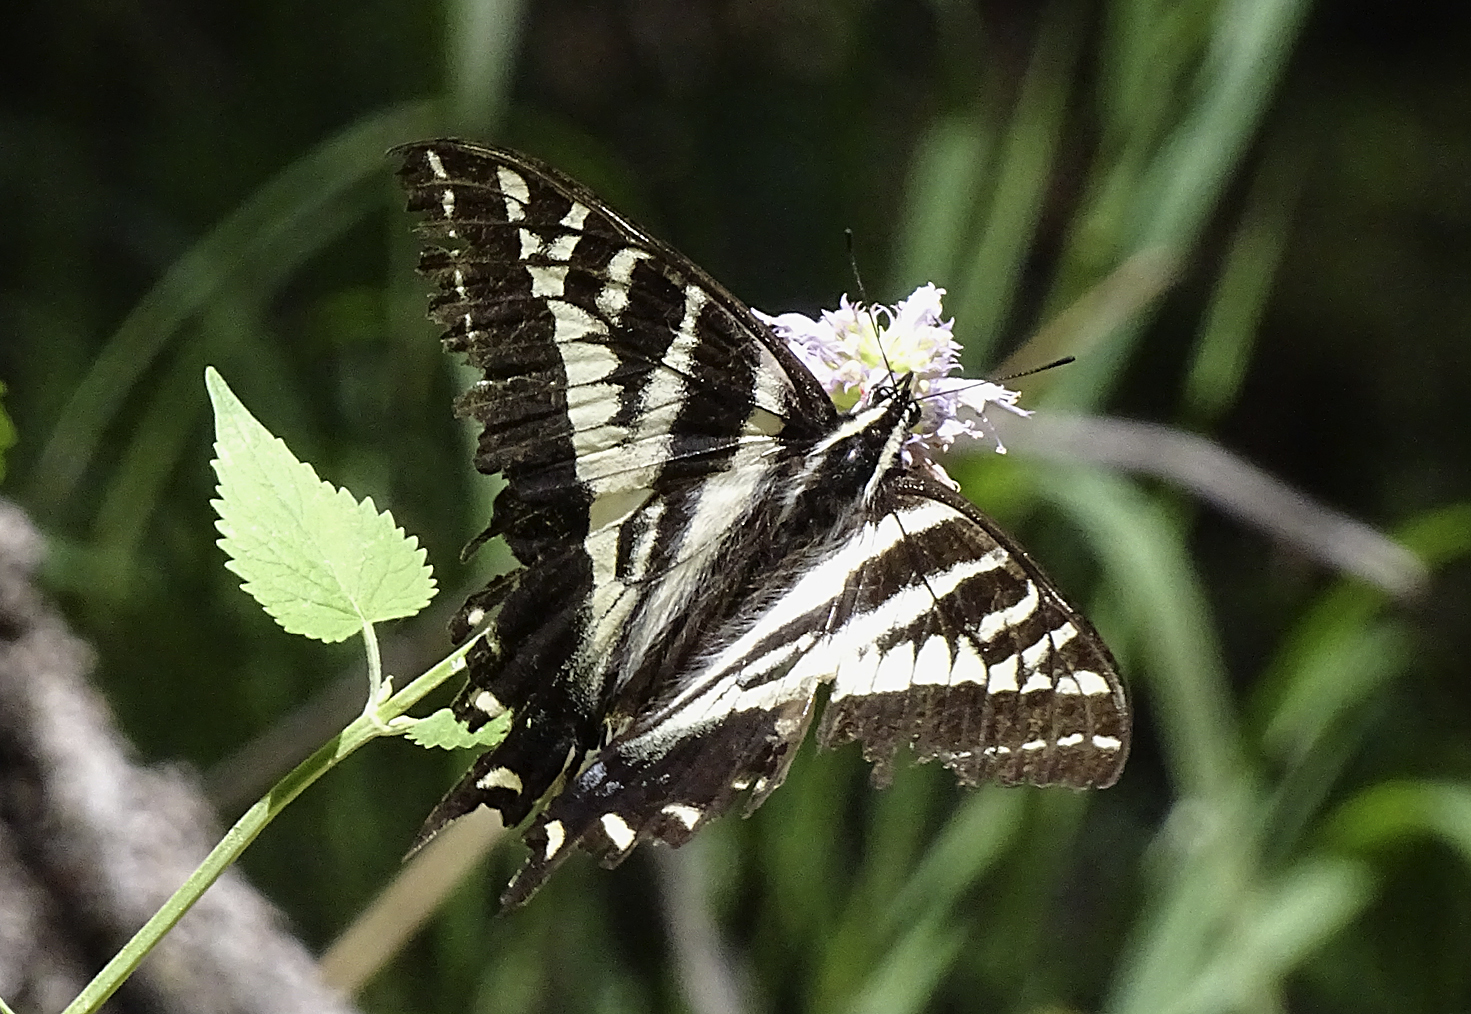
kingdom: Animalia
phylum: Arthropoda
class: Insecta
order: Lepidoptera
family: Papilionidae
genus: Papilio
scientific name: Papilio eurymedon
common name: Pale tiger swallowtail
